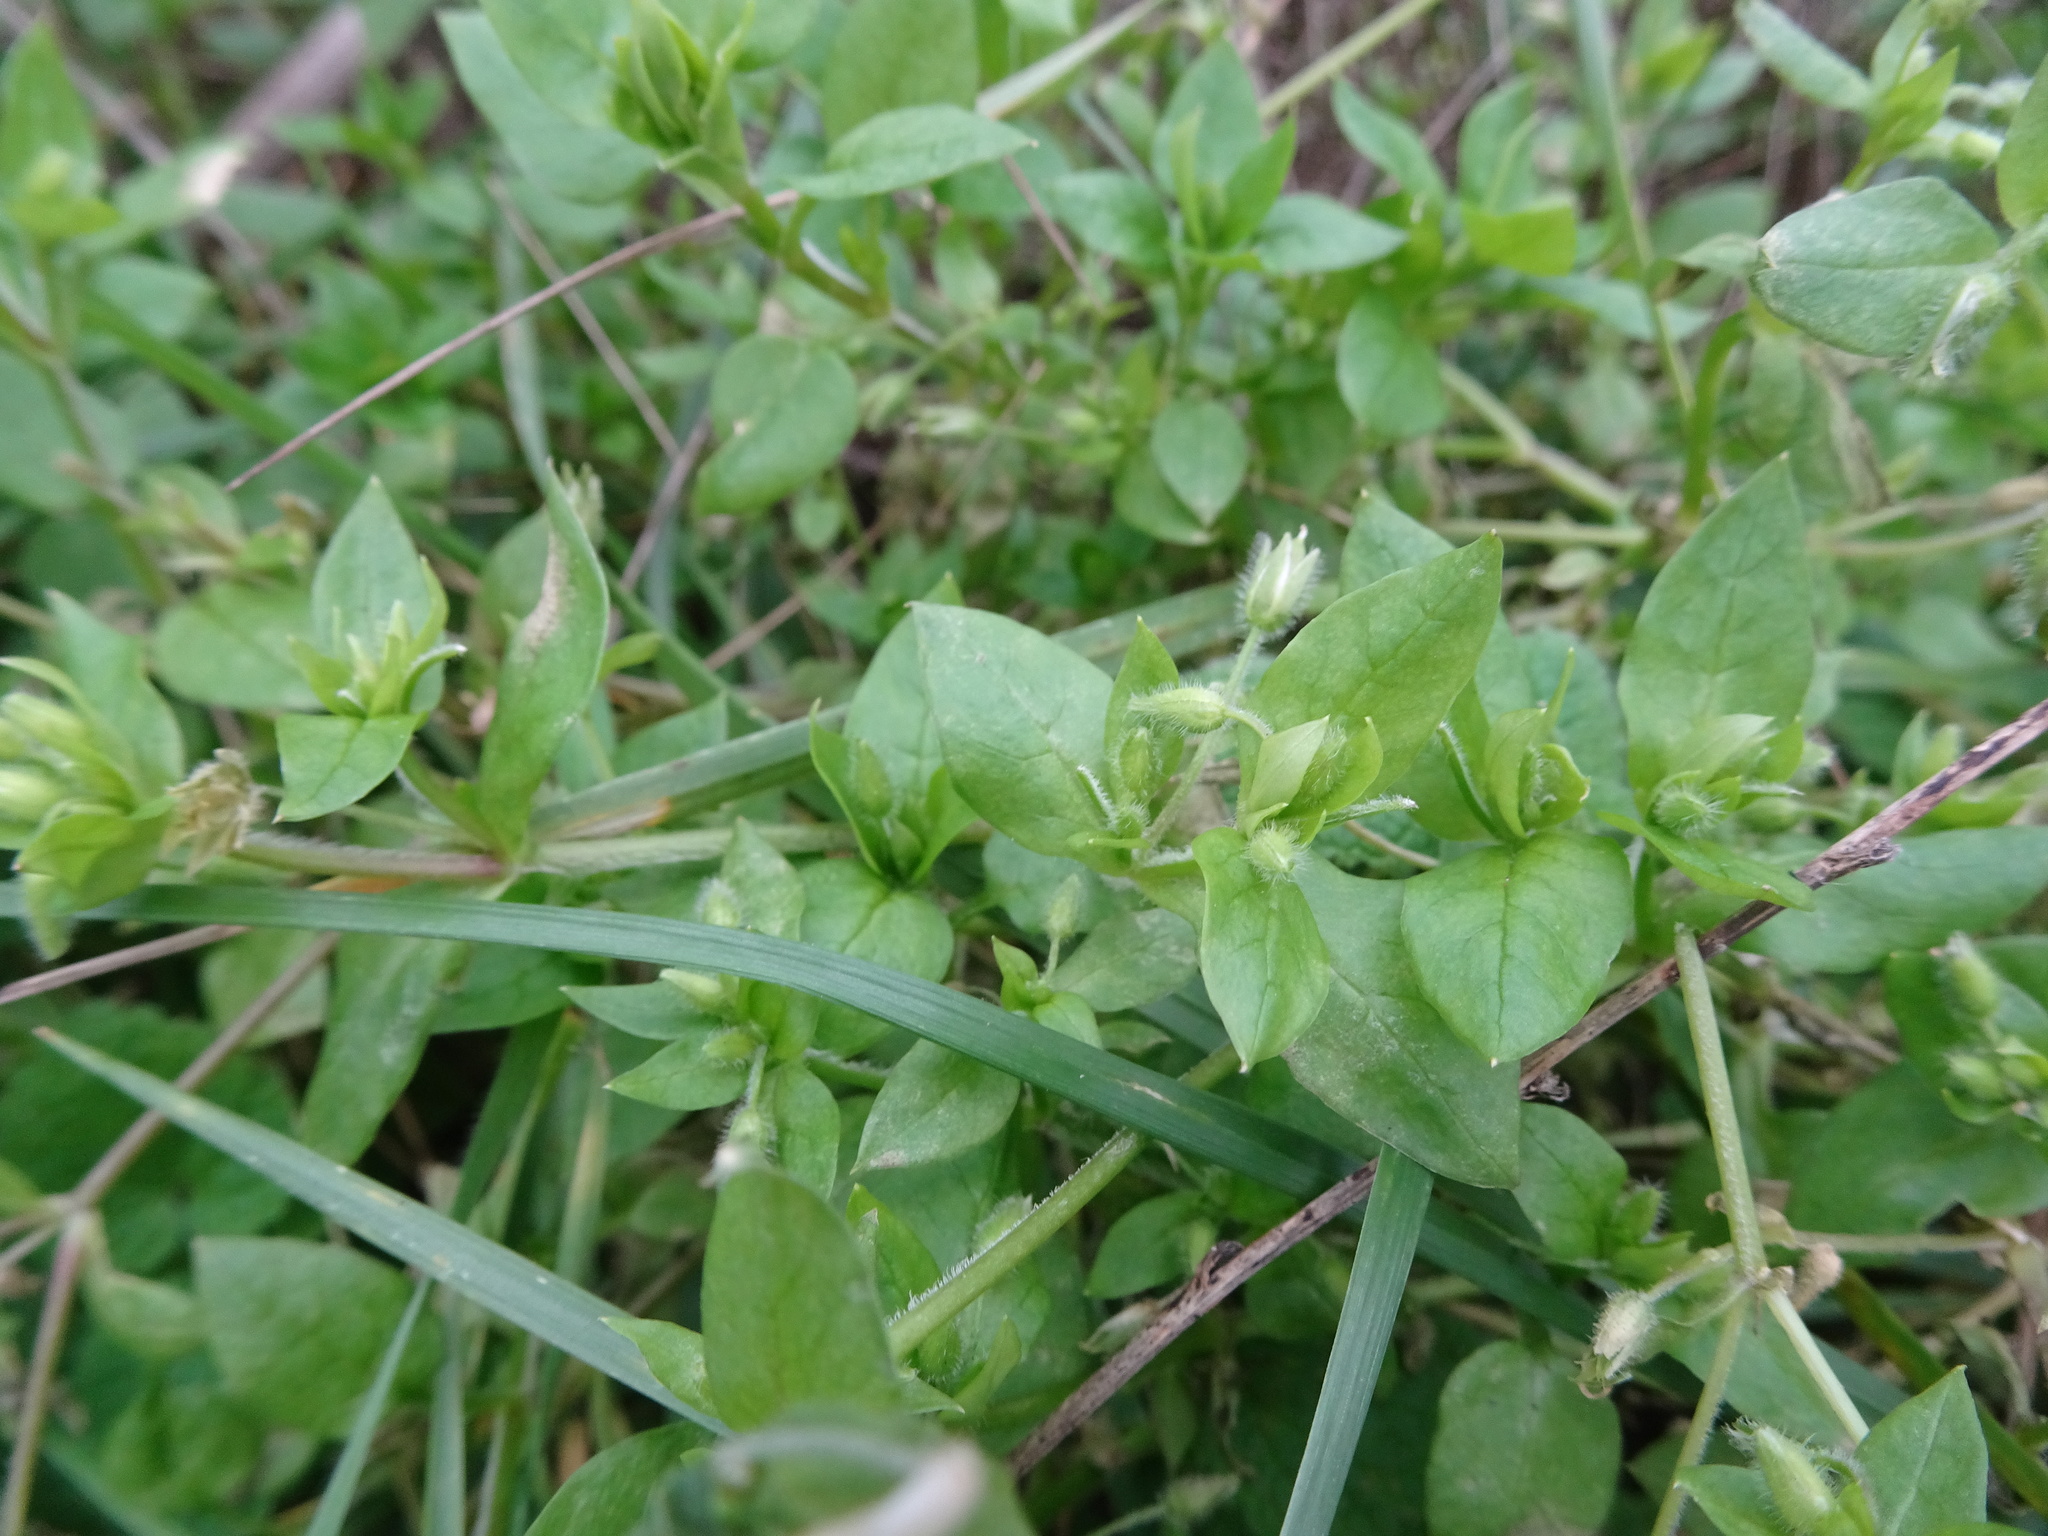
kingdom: Plantae
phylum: Tracheophyta
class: Magnoliopsida
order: Caryophyllales
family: Caryophyllaceae
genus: Stellaria
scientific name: Stellaria media
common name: Common chickweed
